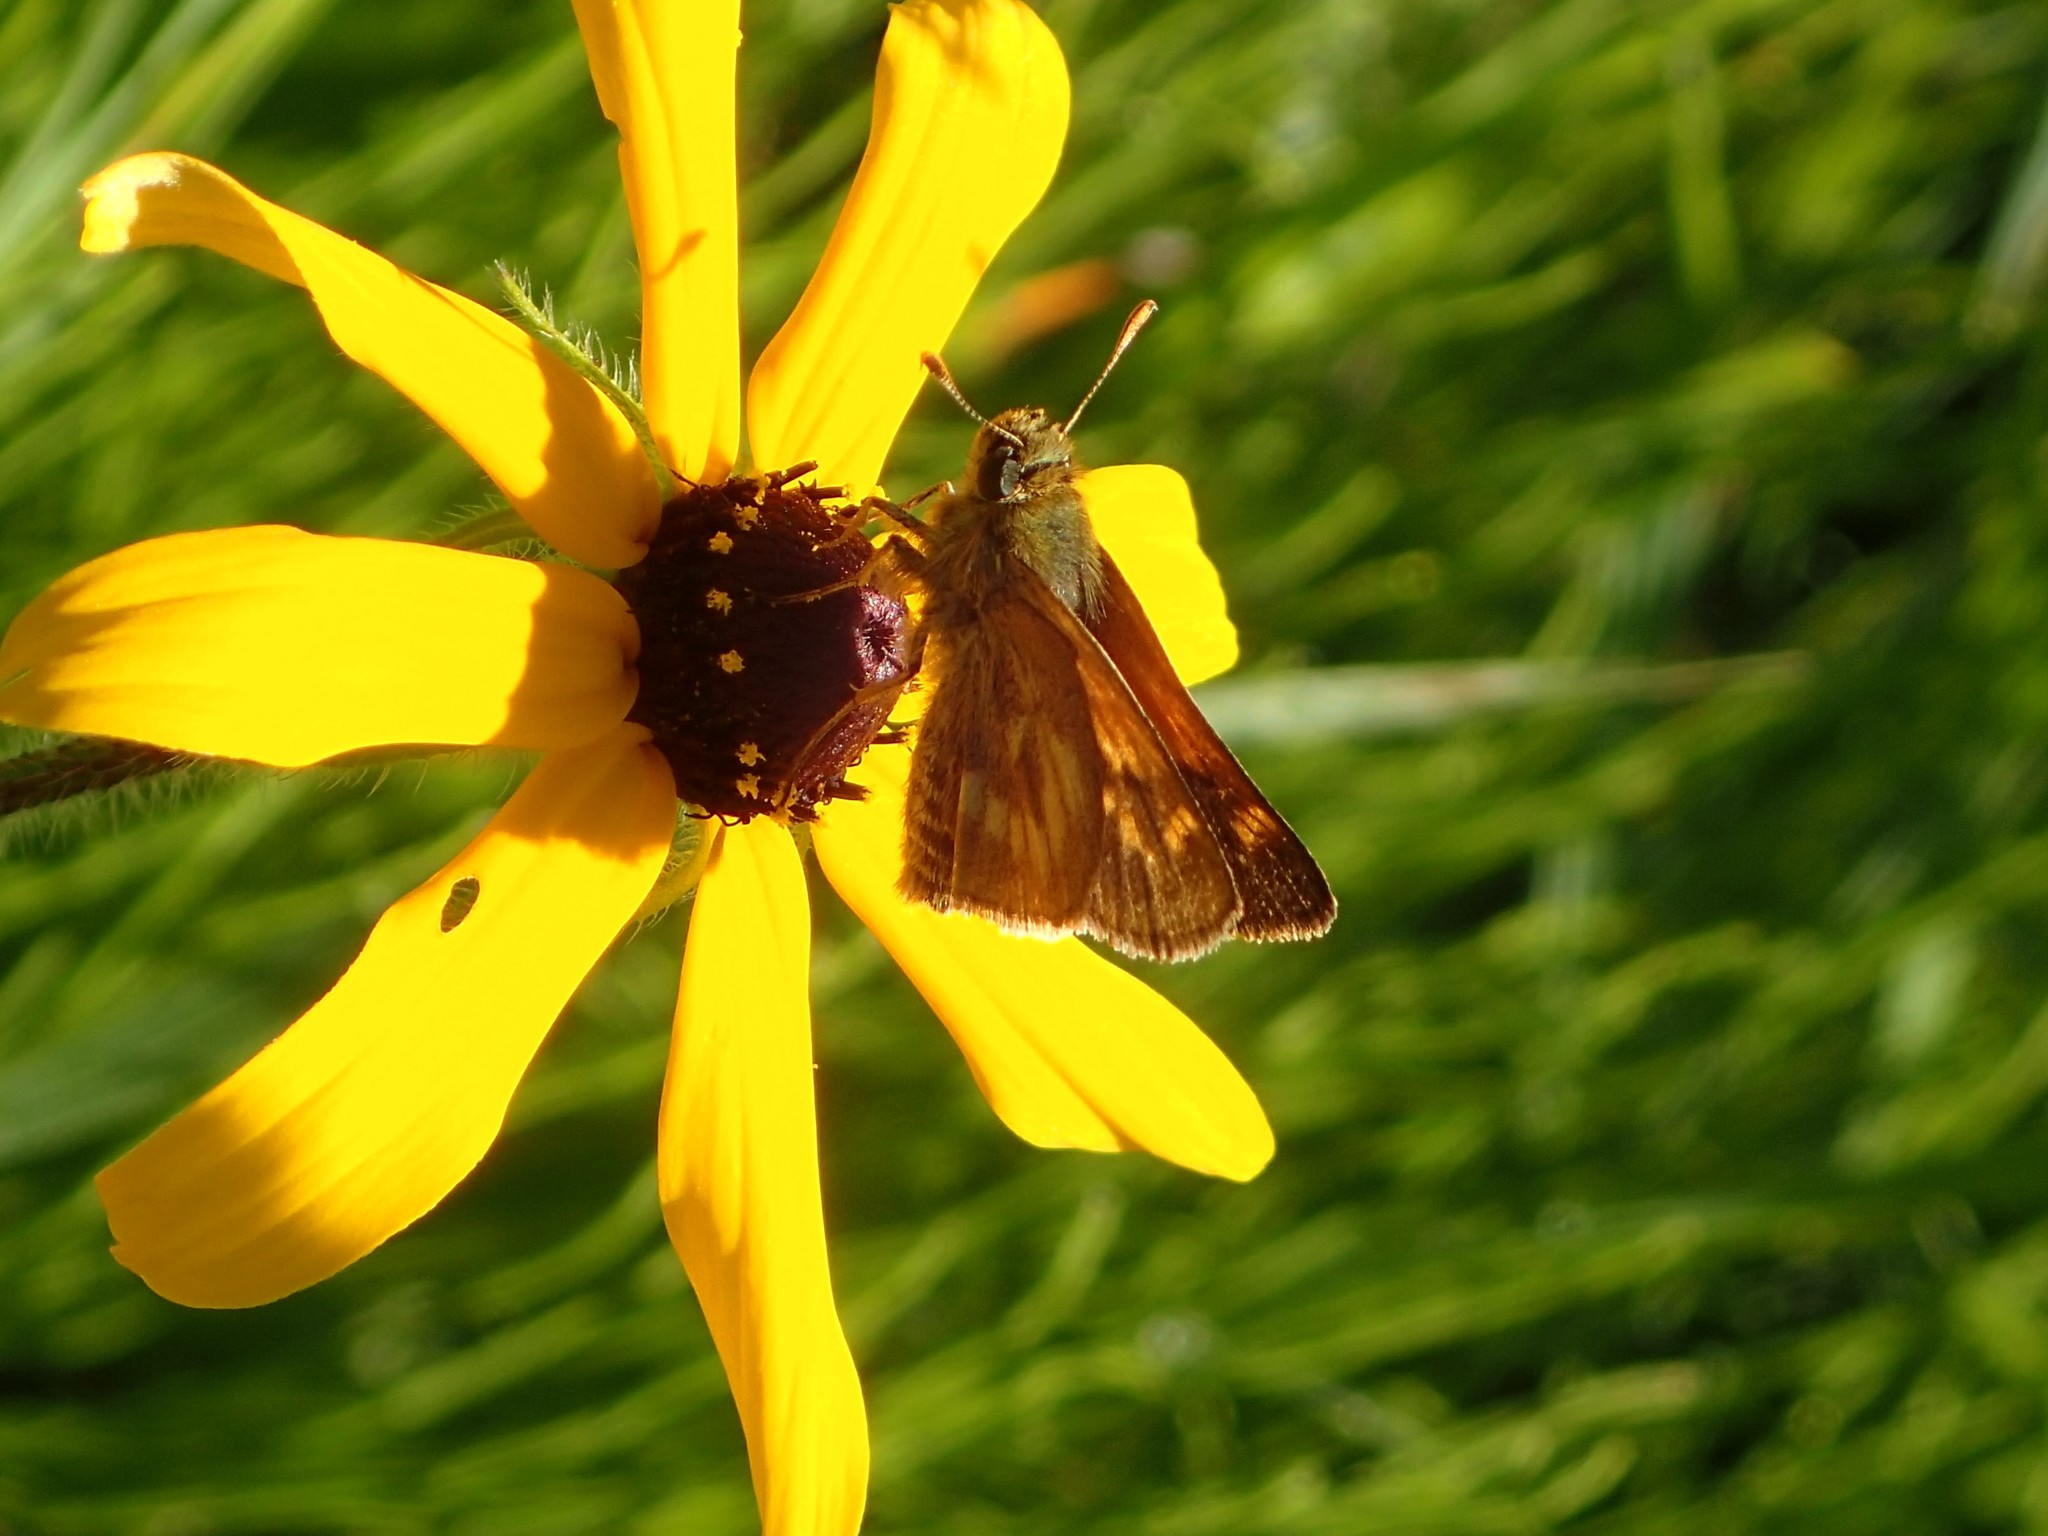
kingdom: Animalia
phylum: Arthropoda
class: Insecta
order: Lepidoptera
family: Hesperiidae
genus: Polites
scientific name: Polites mystic
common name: Long dash
